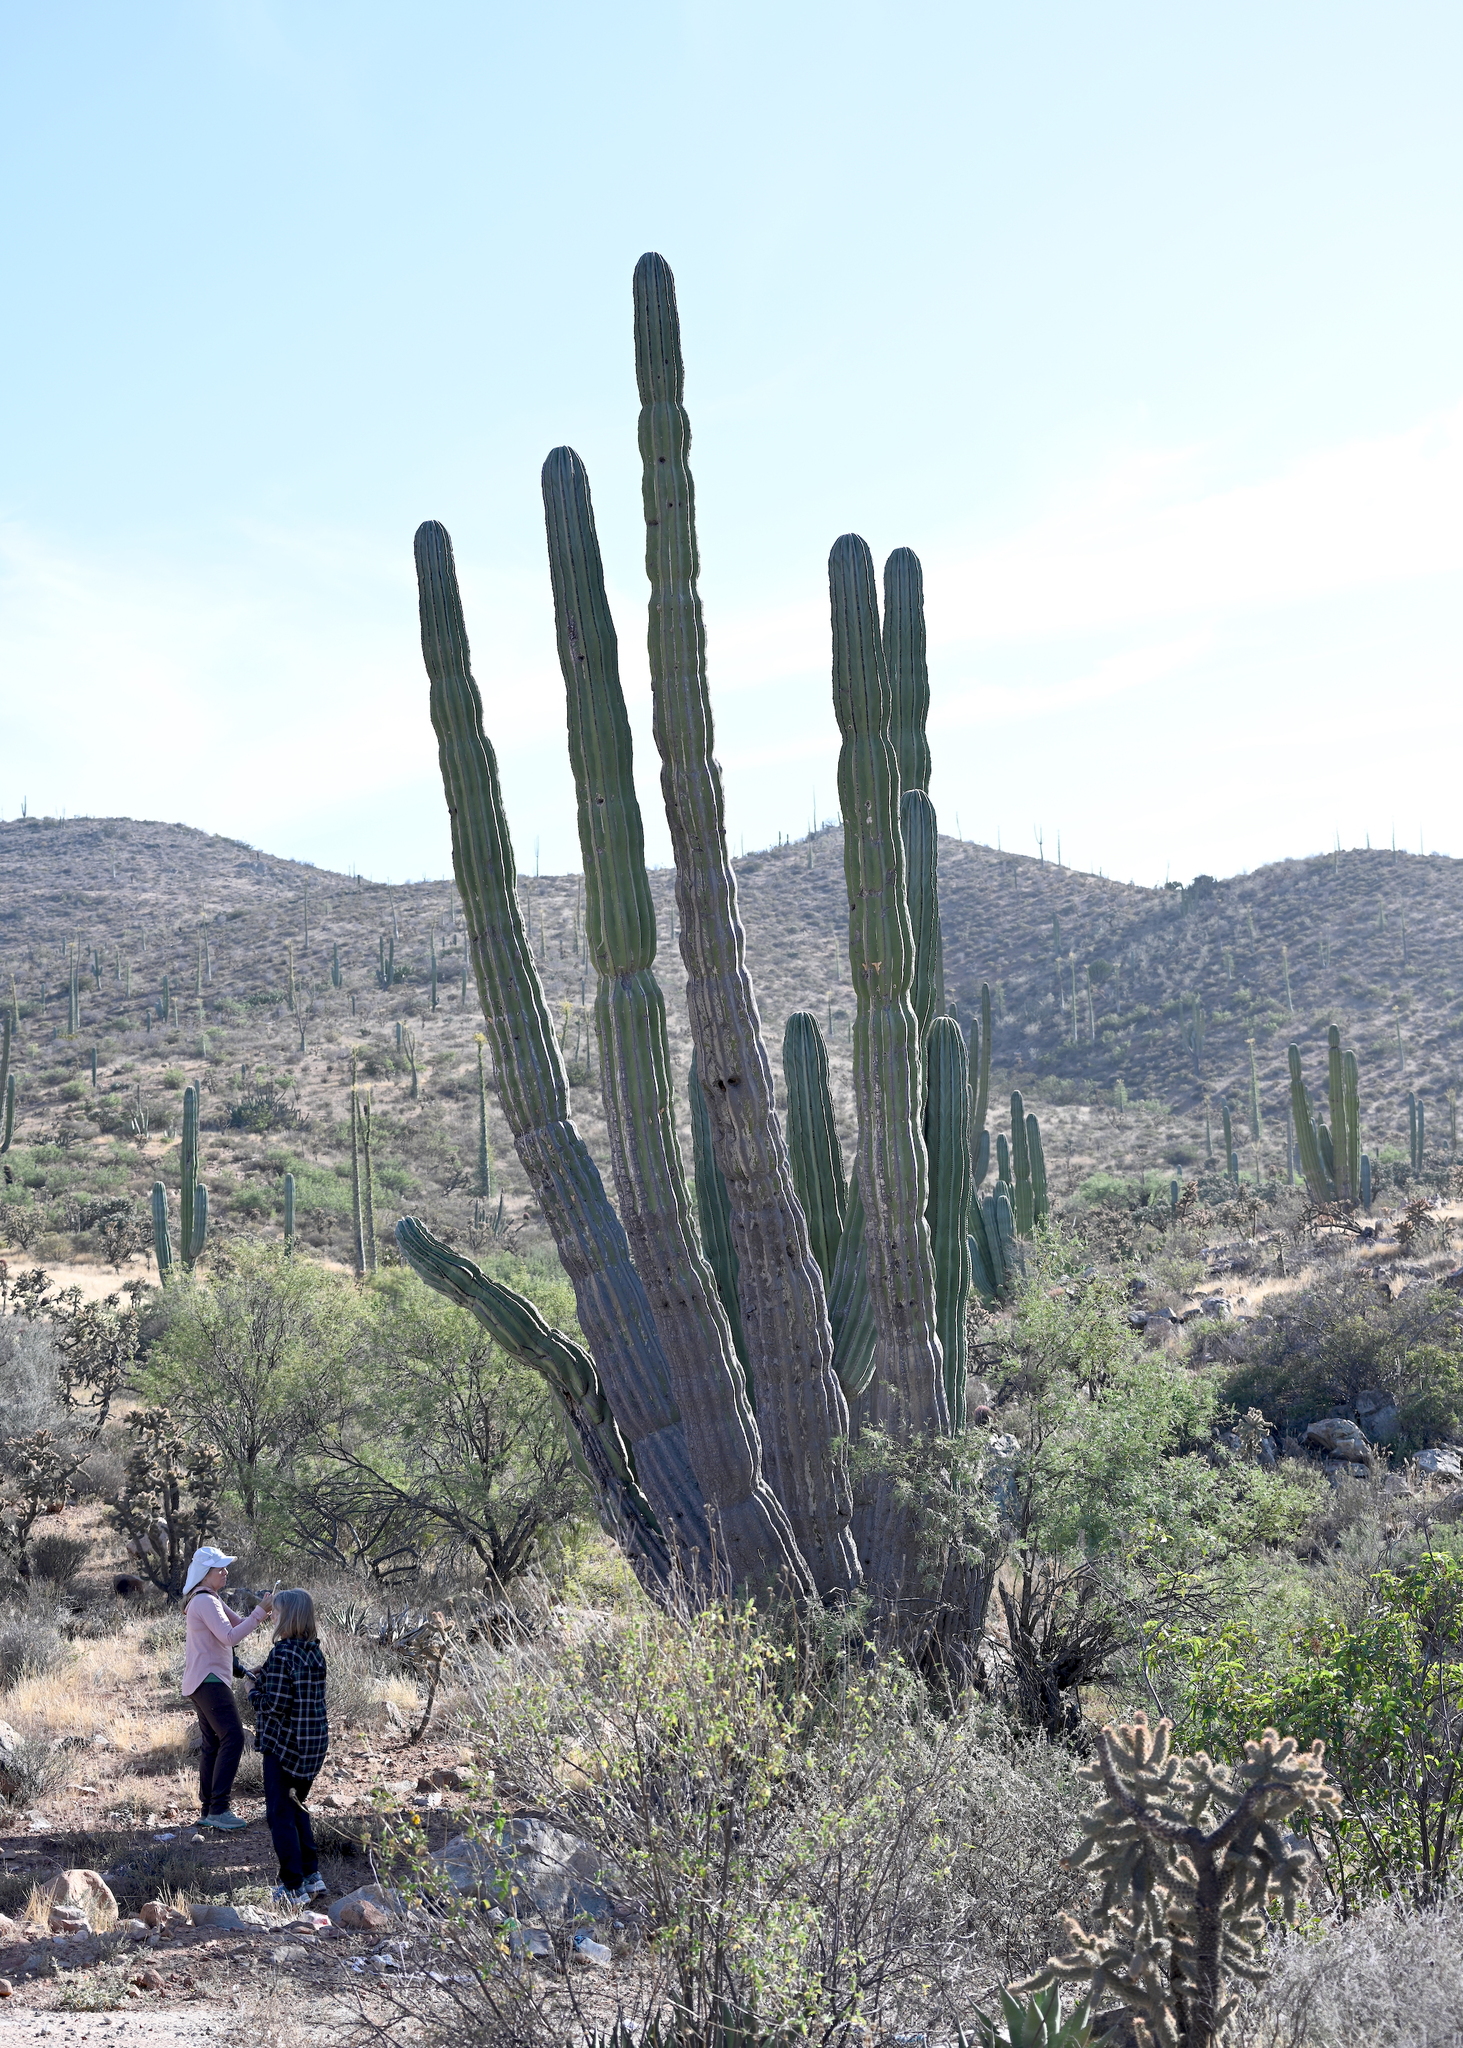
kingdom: Plantae
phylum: Tracheophyta
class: Magnoliopsida
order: Caryophyllales
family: Cactaceae
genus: Pachycereus
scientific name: Pachycereus pringlei
